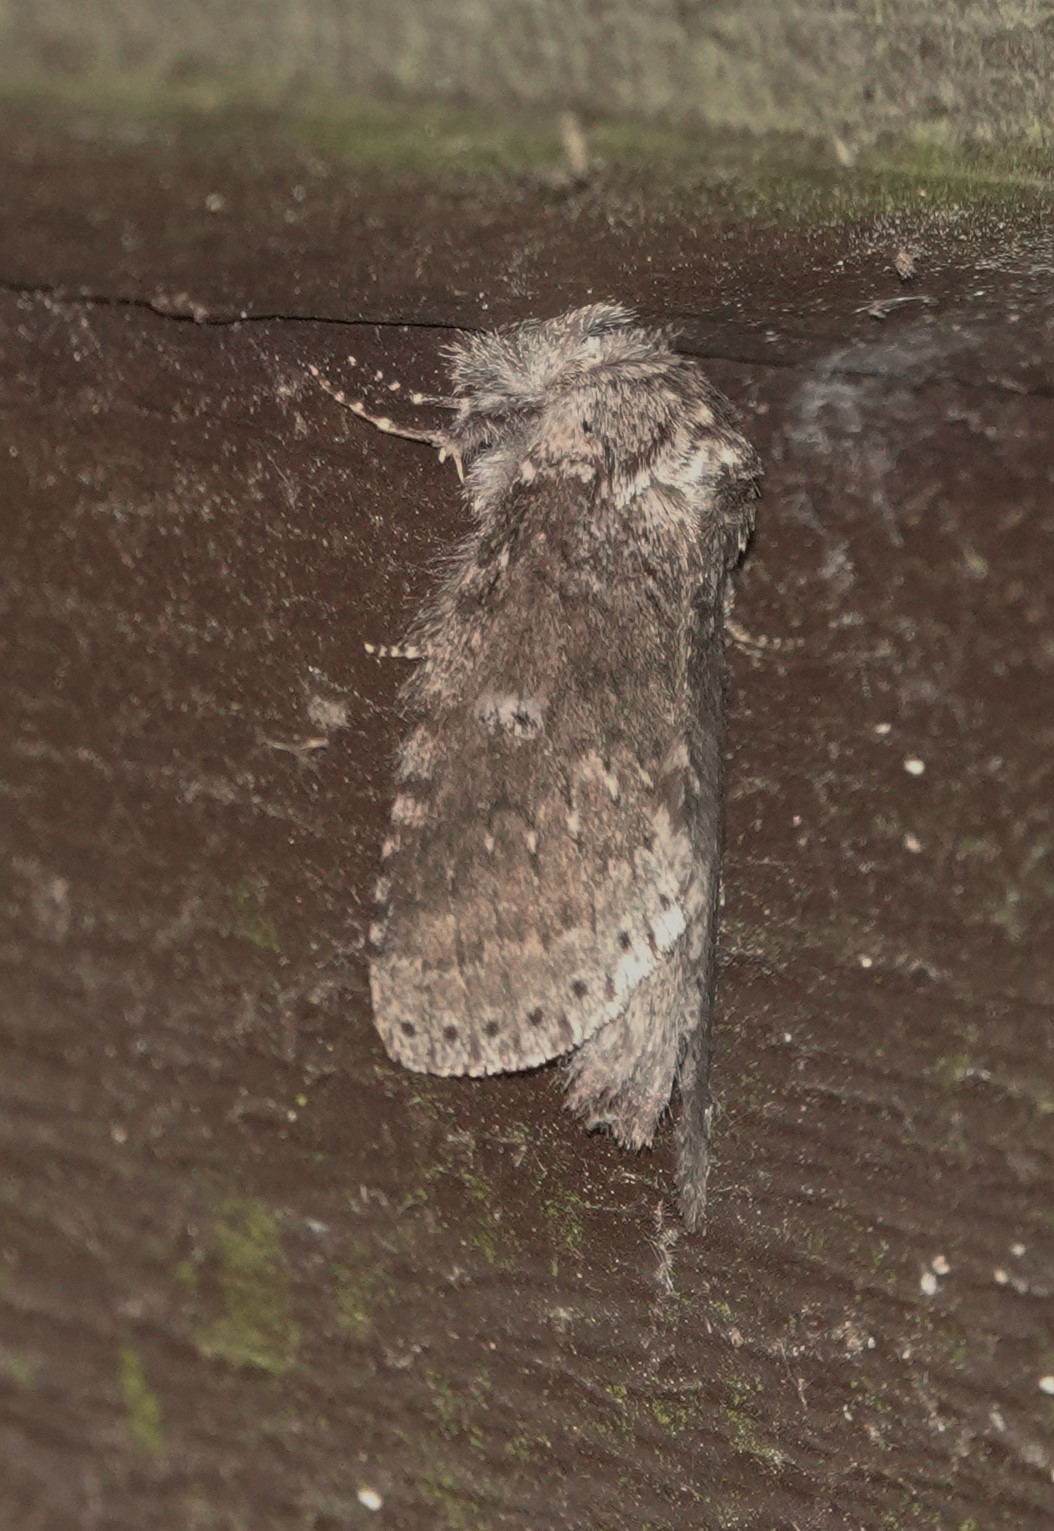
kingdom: Animalia
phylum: Arthropoda
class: Insecta
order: Lepidoptera
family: Notodontidae
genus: Lochmaeus
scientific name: Lochmaeus manteo
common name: Variable oakleaf caterpillar moth
